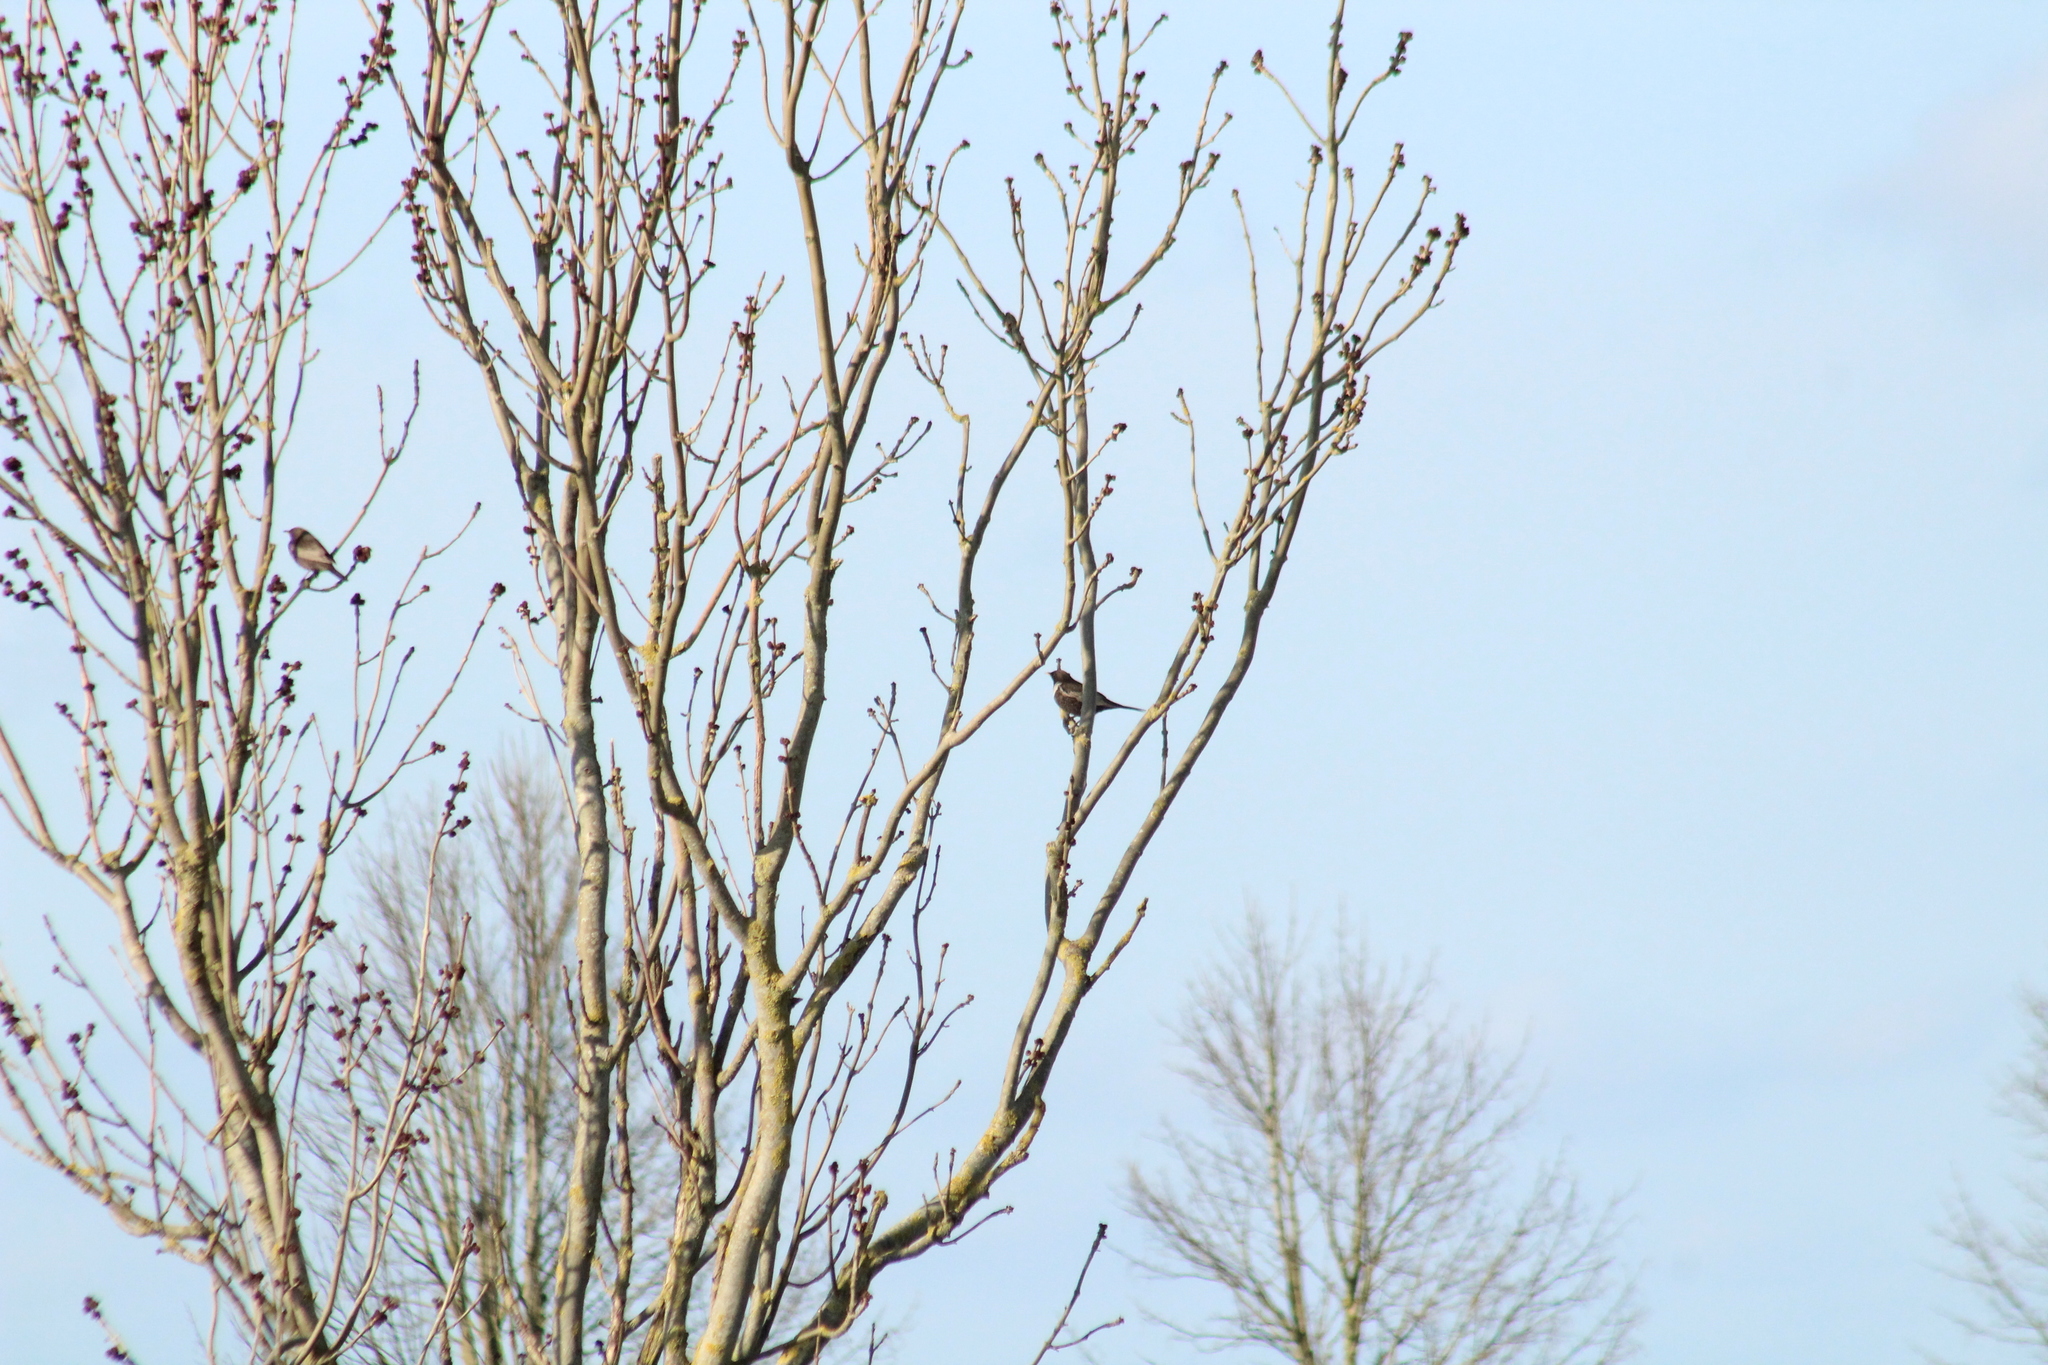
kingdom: Animalia
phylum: Chordata
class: Aves
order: Passeriformes
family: Turdidae
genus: Turdus
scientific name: Turdus torquatus
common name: Ring ouzel
